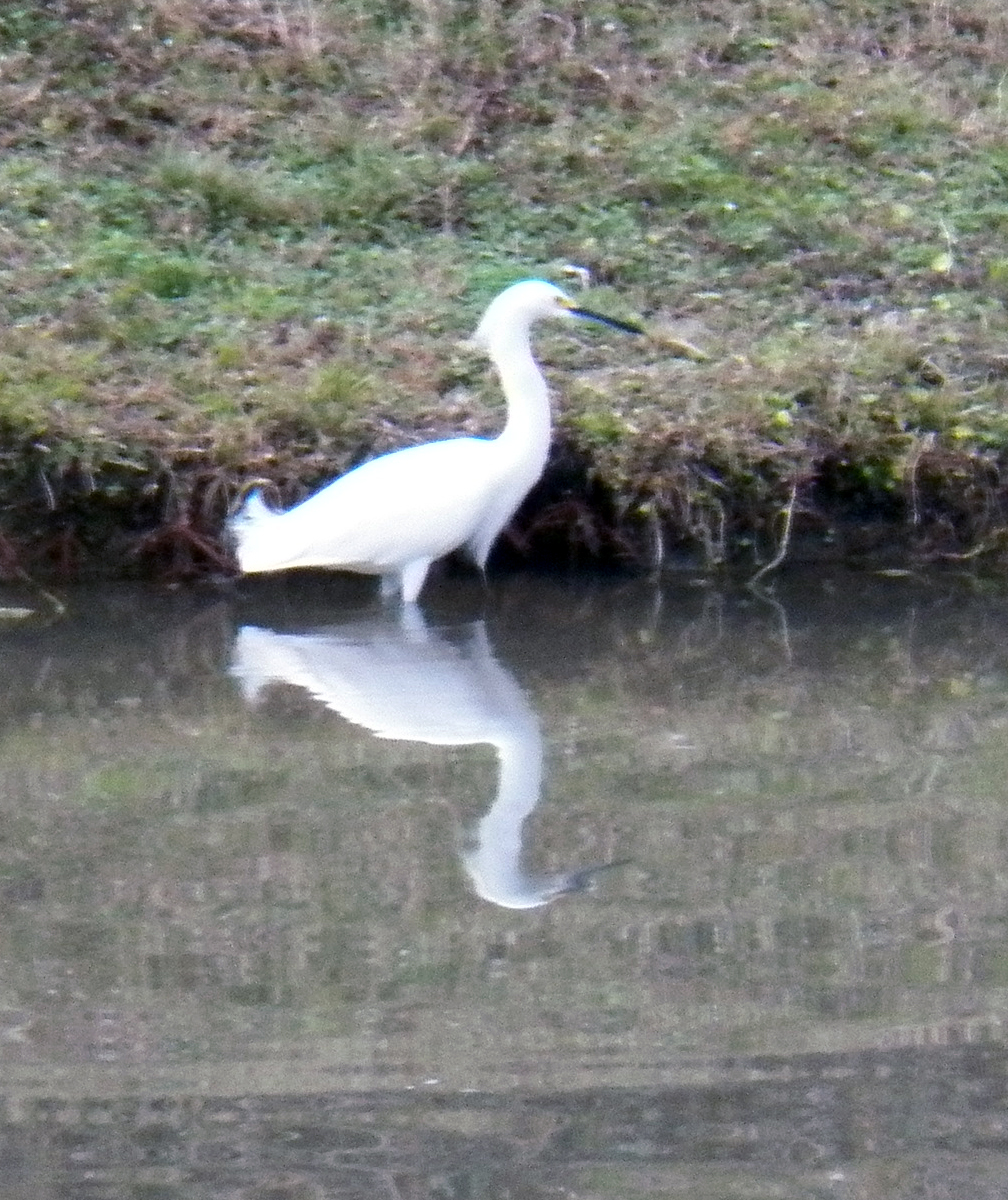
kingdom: Animalia
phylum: Chordata
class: Aves
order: Pelecaniformes
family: Ardeidae
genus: Egretta
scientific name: Egretta thula
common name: Snowy egret
